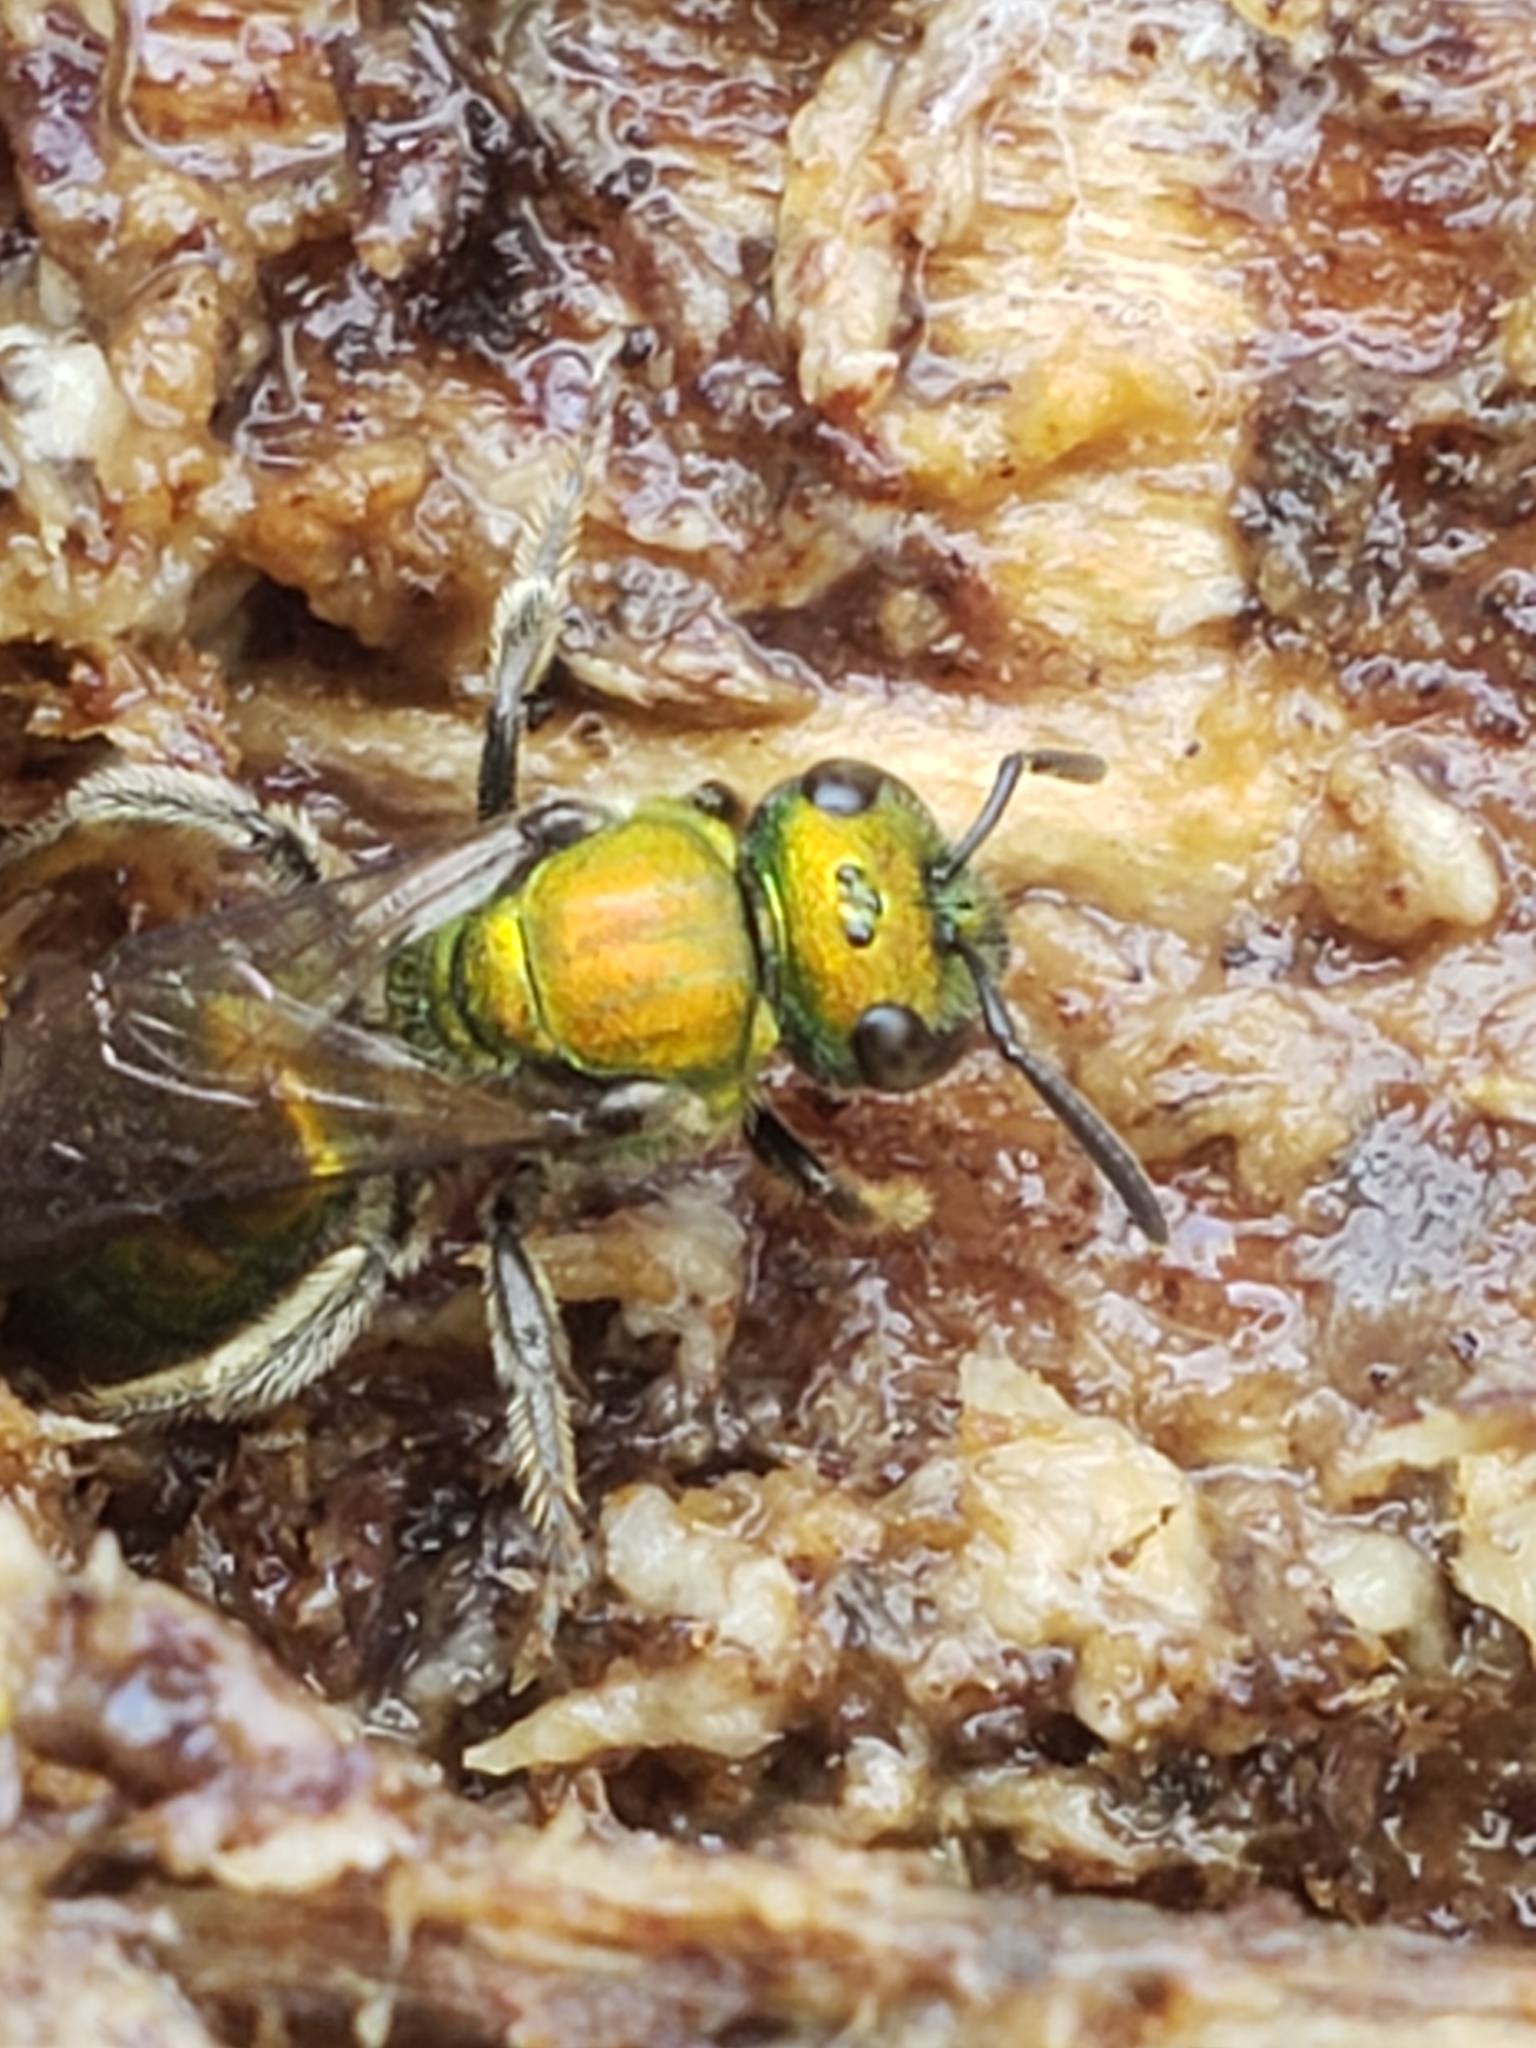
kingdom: Animalia
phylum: Arthropoda
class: Insecta
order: Hymenoptera
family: Halictidae
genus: Augochlora
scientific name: Augochlora pura
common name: Pure green sweat bee
